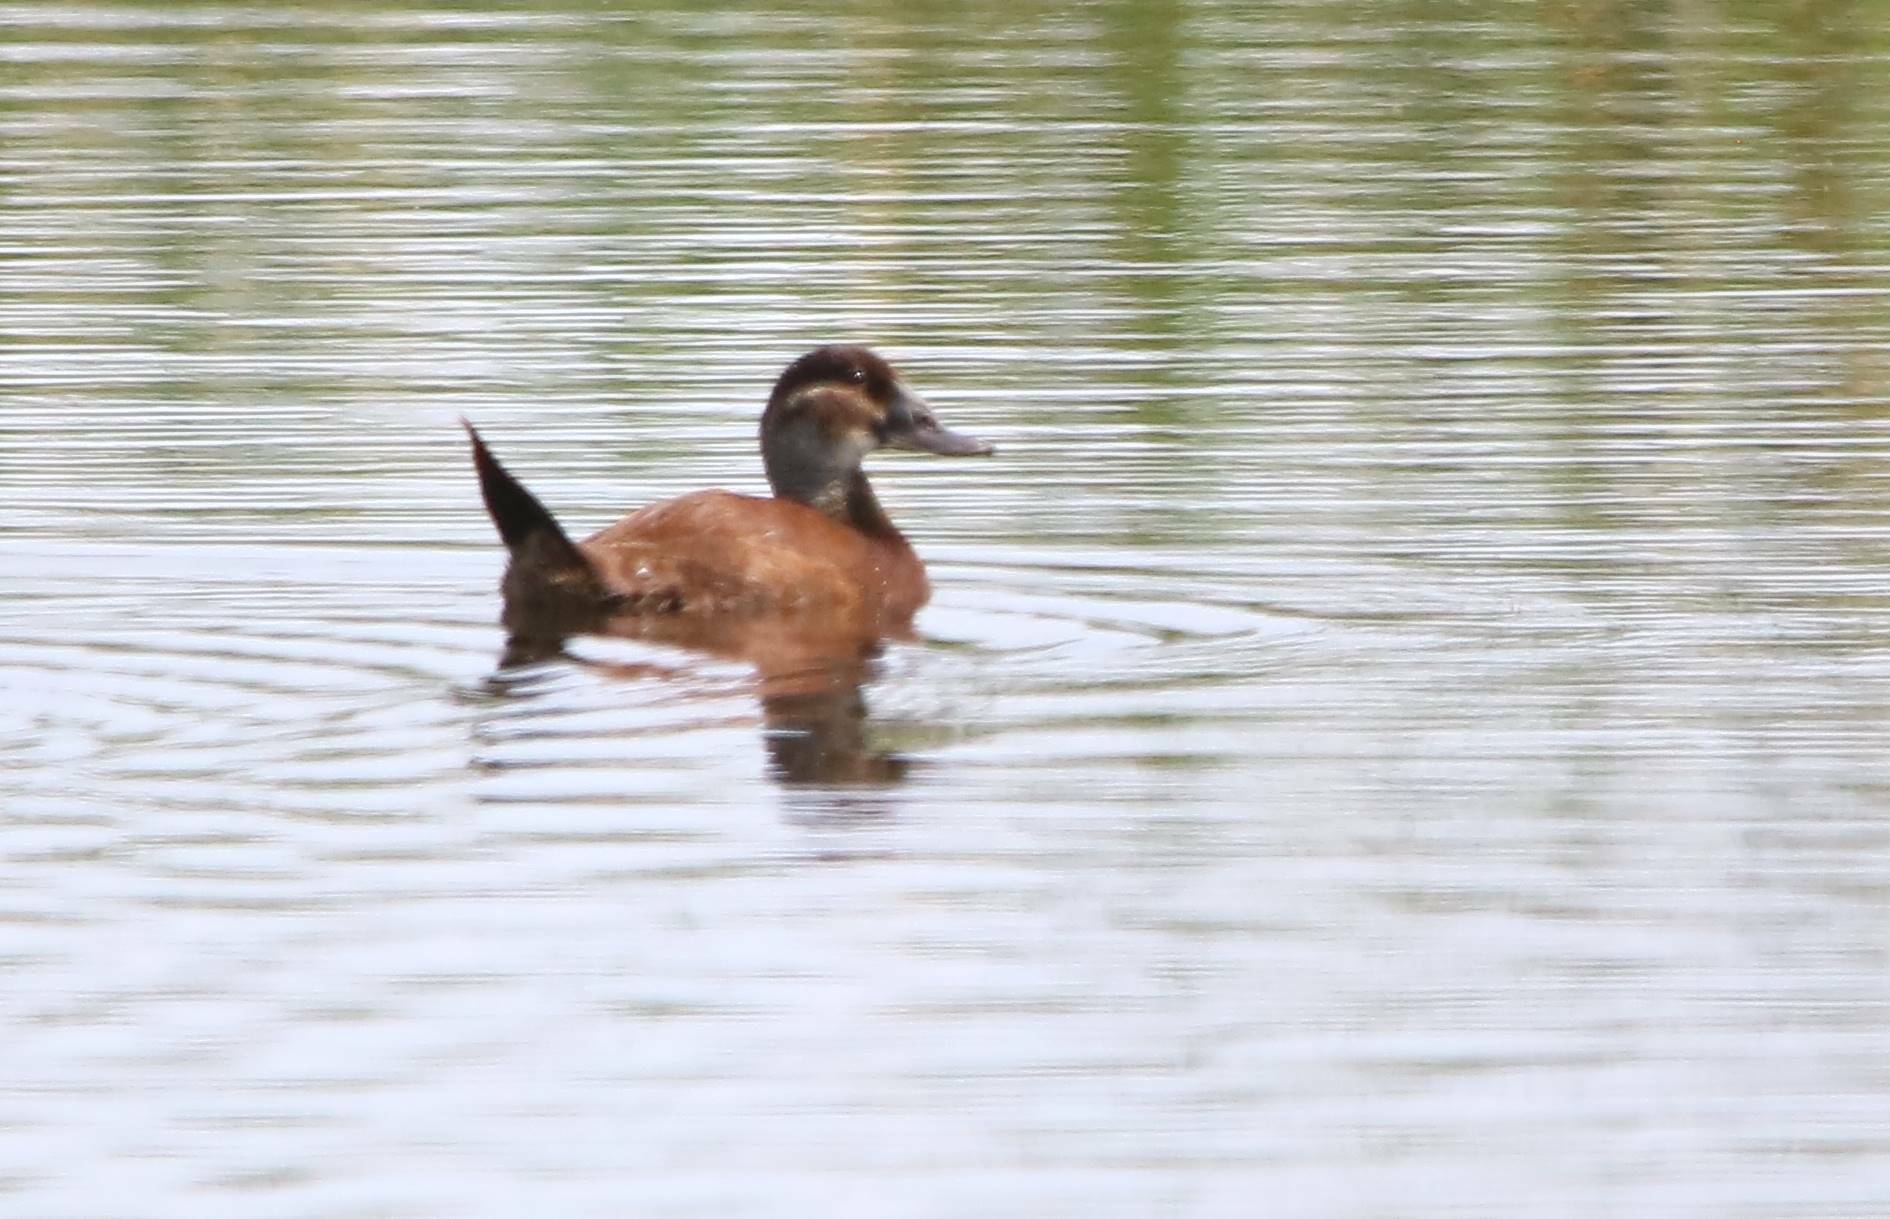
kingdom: Animalia
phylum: Chordata
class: Aves
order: Anseriformes
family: Anatidae
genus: Oxyura
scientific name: Oxyura leucocephala
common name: White-headed duck
